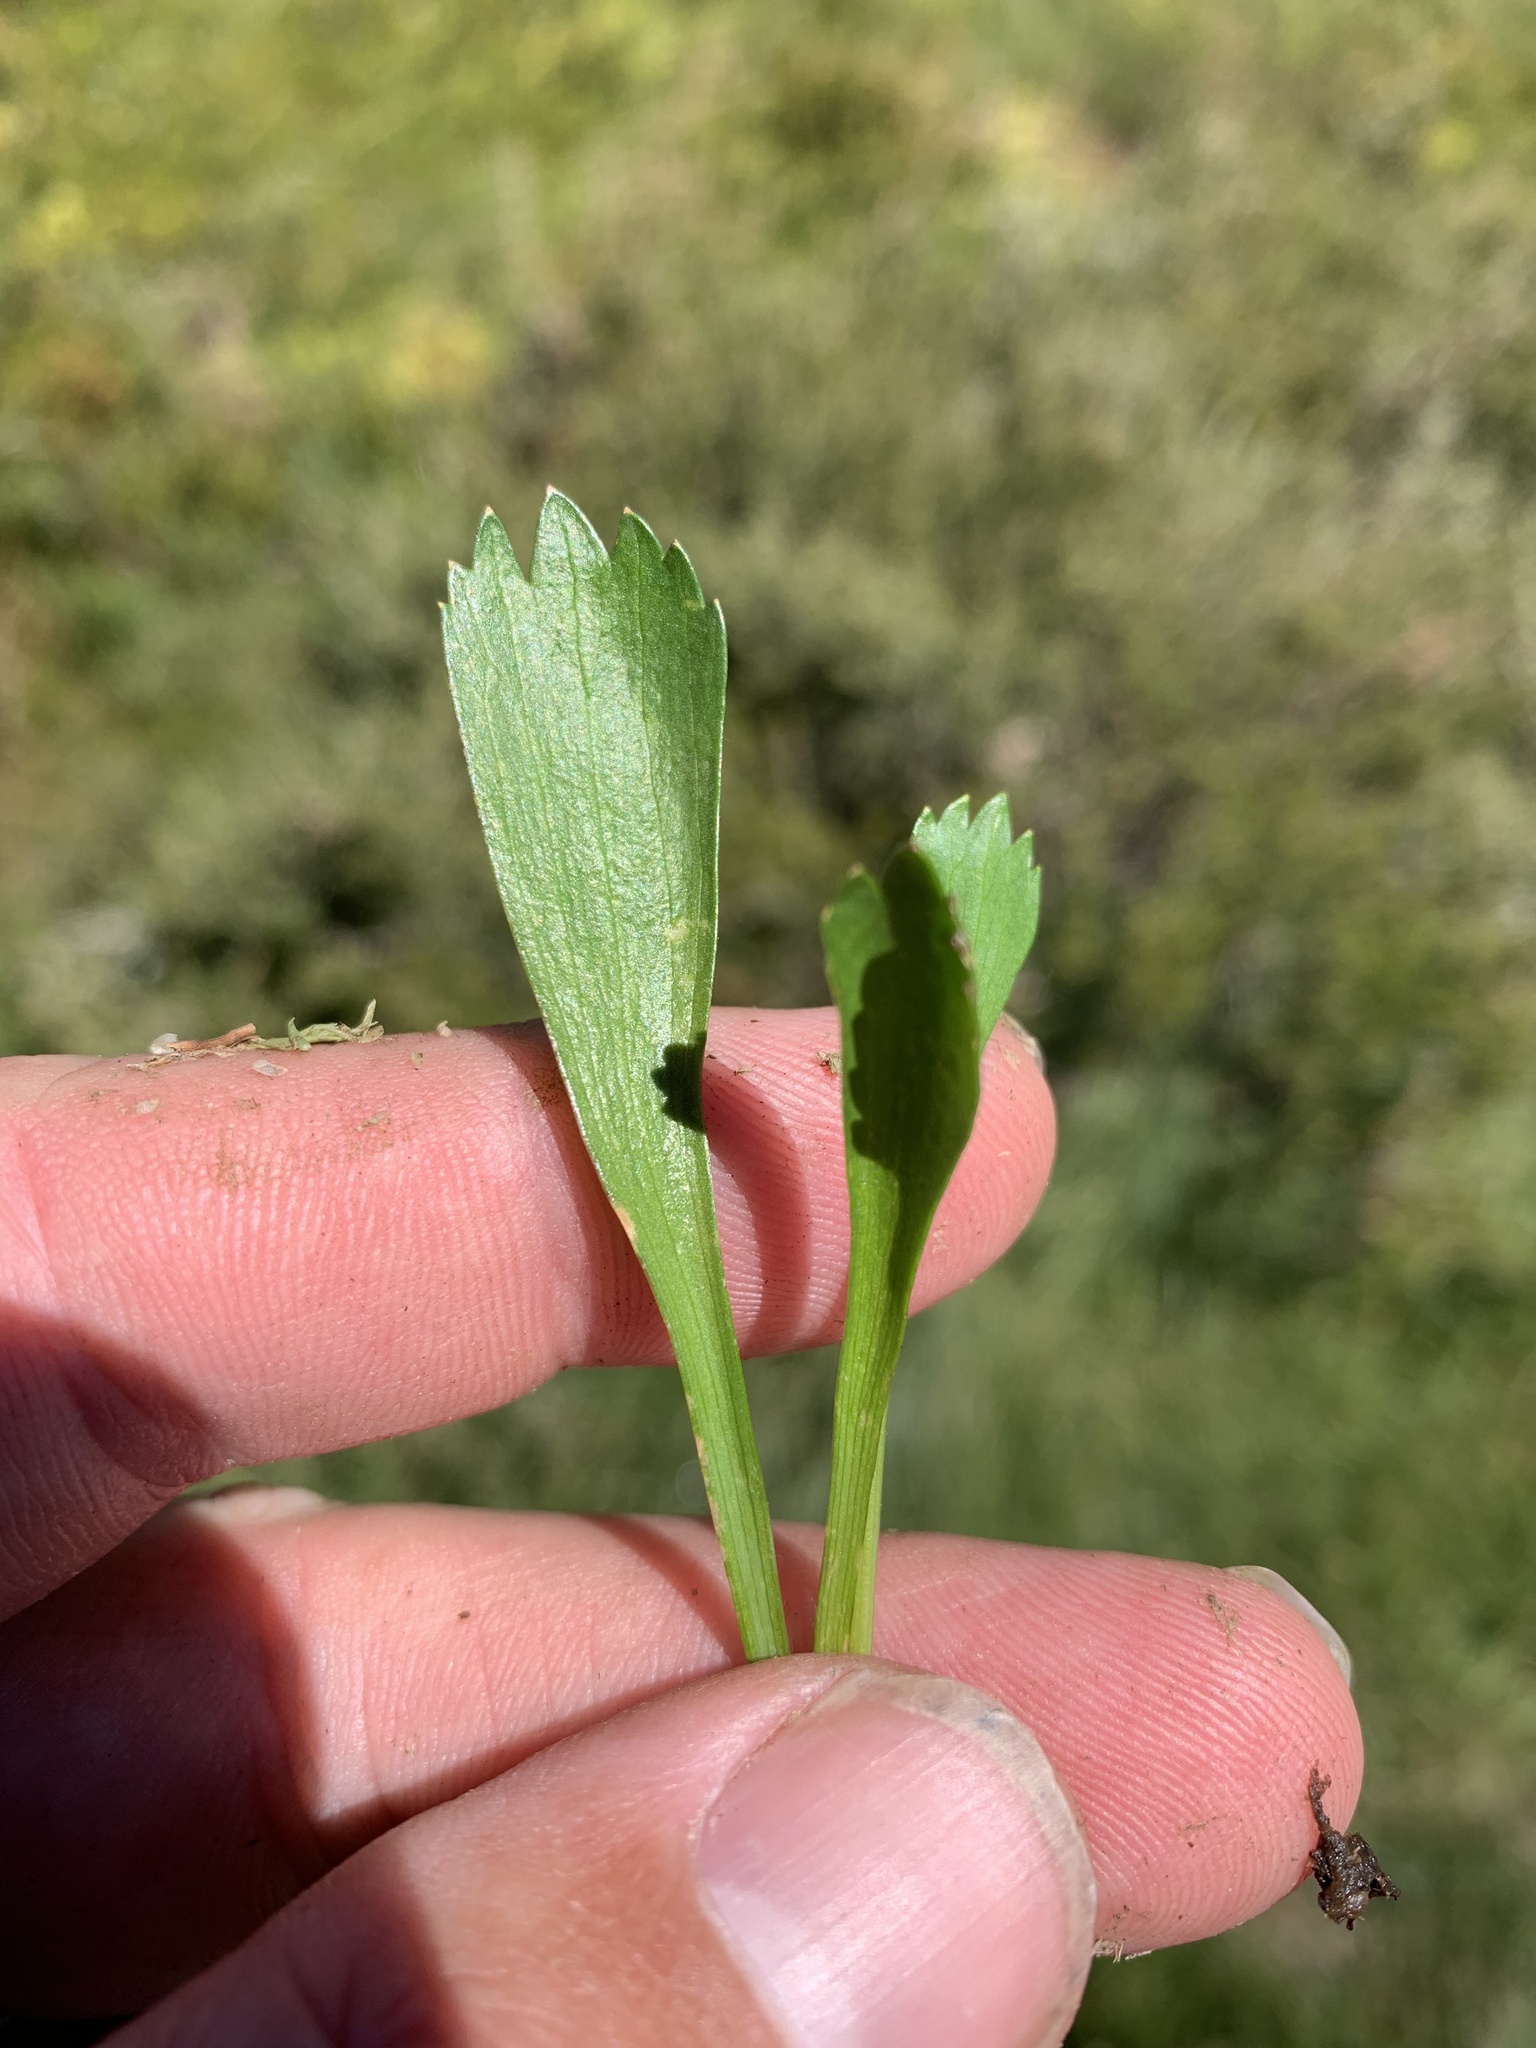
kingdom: Plantae
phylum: Tracheophyta
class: Magnoliopsida
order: Apiales
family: Apiaceae
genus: Oschatzia
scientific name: Oschatzia cuneifolia
